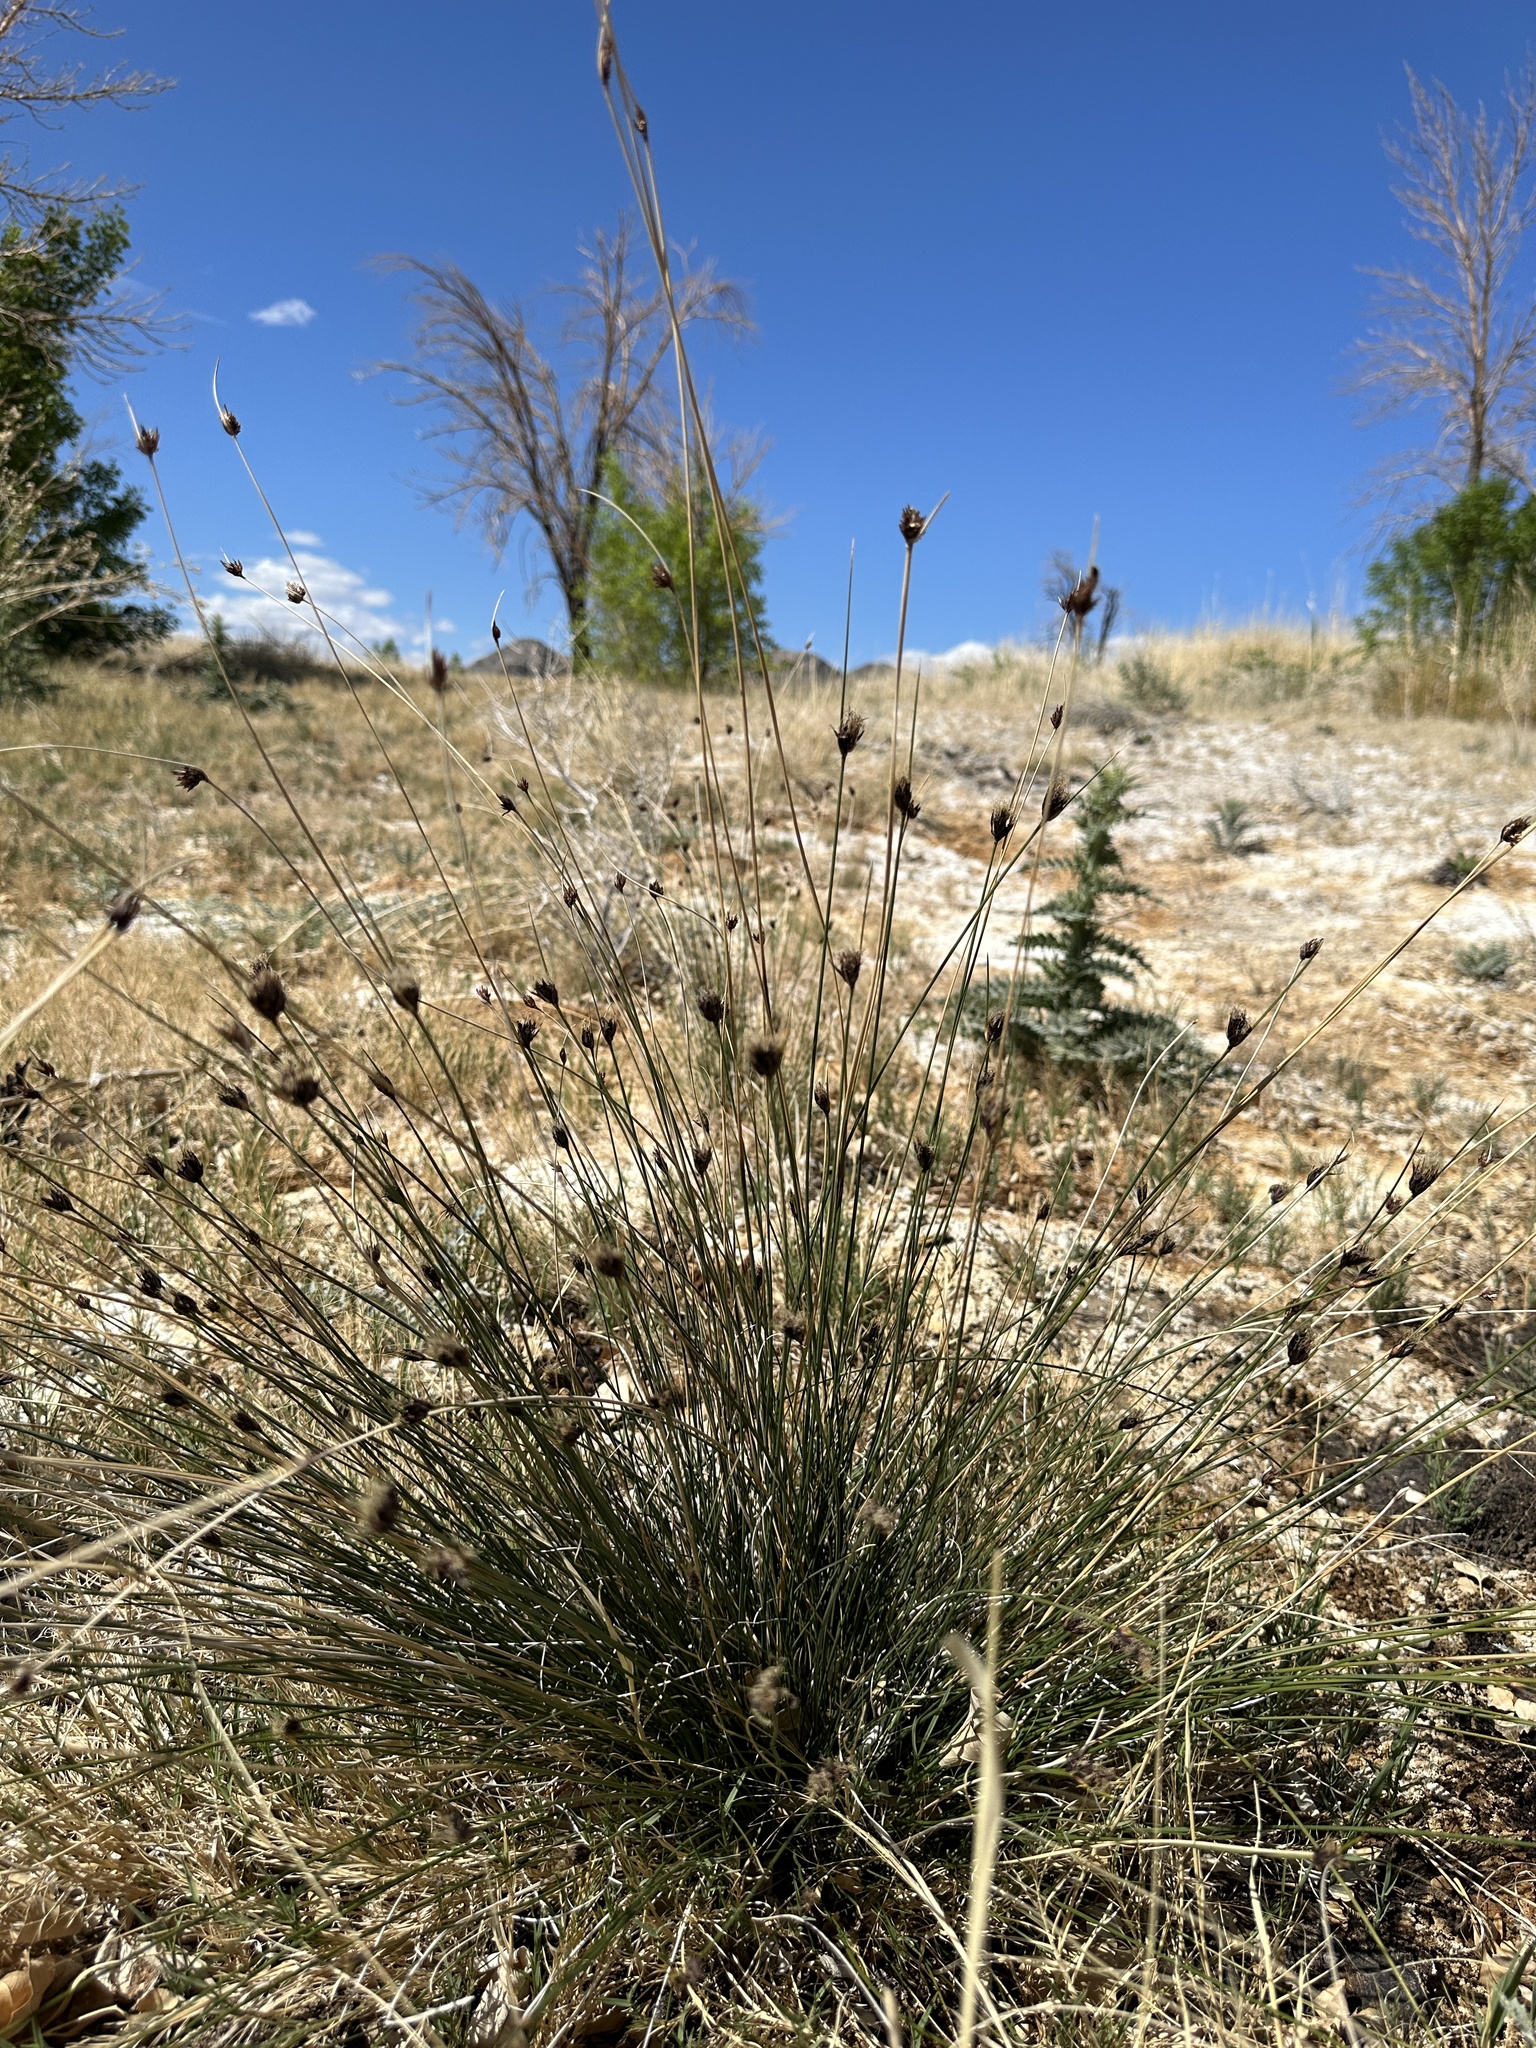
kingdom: Plantae
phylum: Tracheophyta
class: Liliopsida
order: Poales
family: Cyperaceae
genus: Schoenus
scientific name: Schoenus nigricans
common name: Black bog-rush
